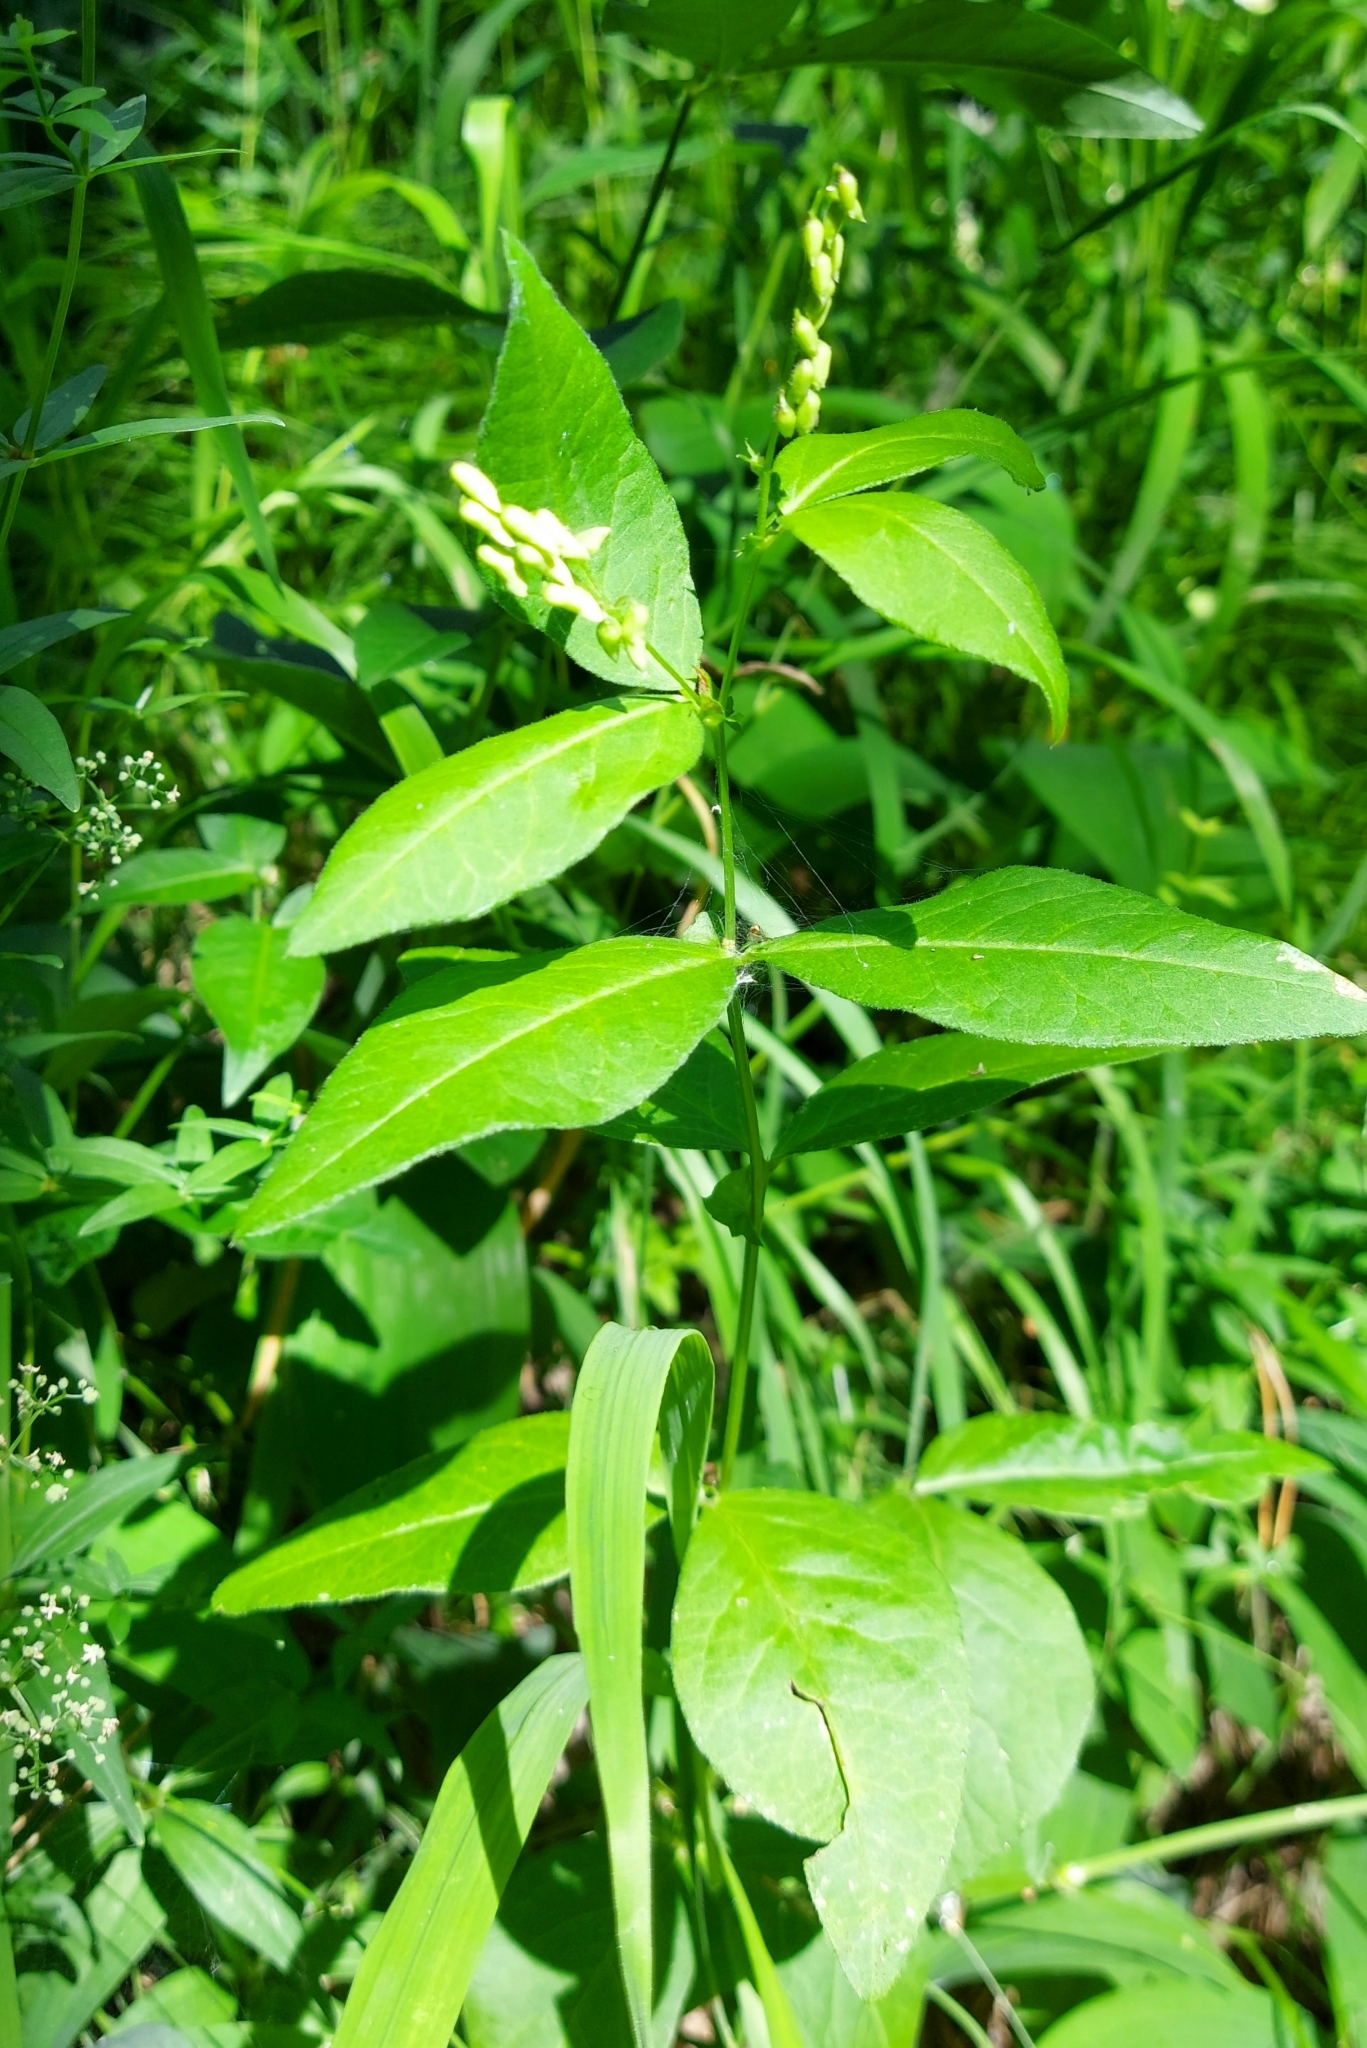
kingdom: Plantae
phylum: Tracheophyta
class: Magnoliopsida
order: Fabales
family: Fabaceae
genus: Vicia
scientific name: Vicia unijuga
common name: Two-leaf vetch
